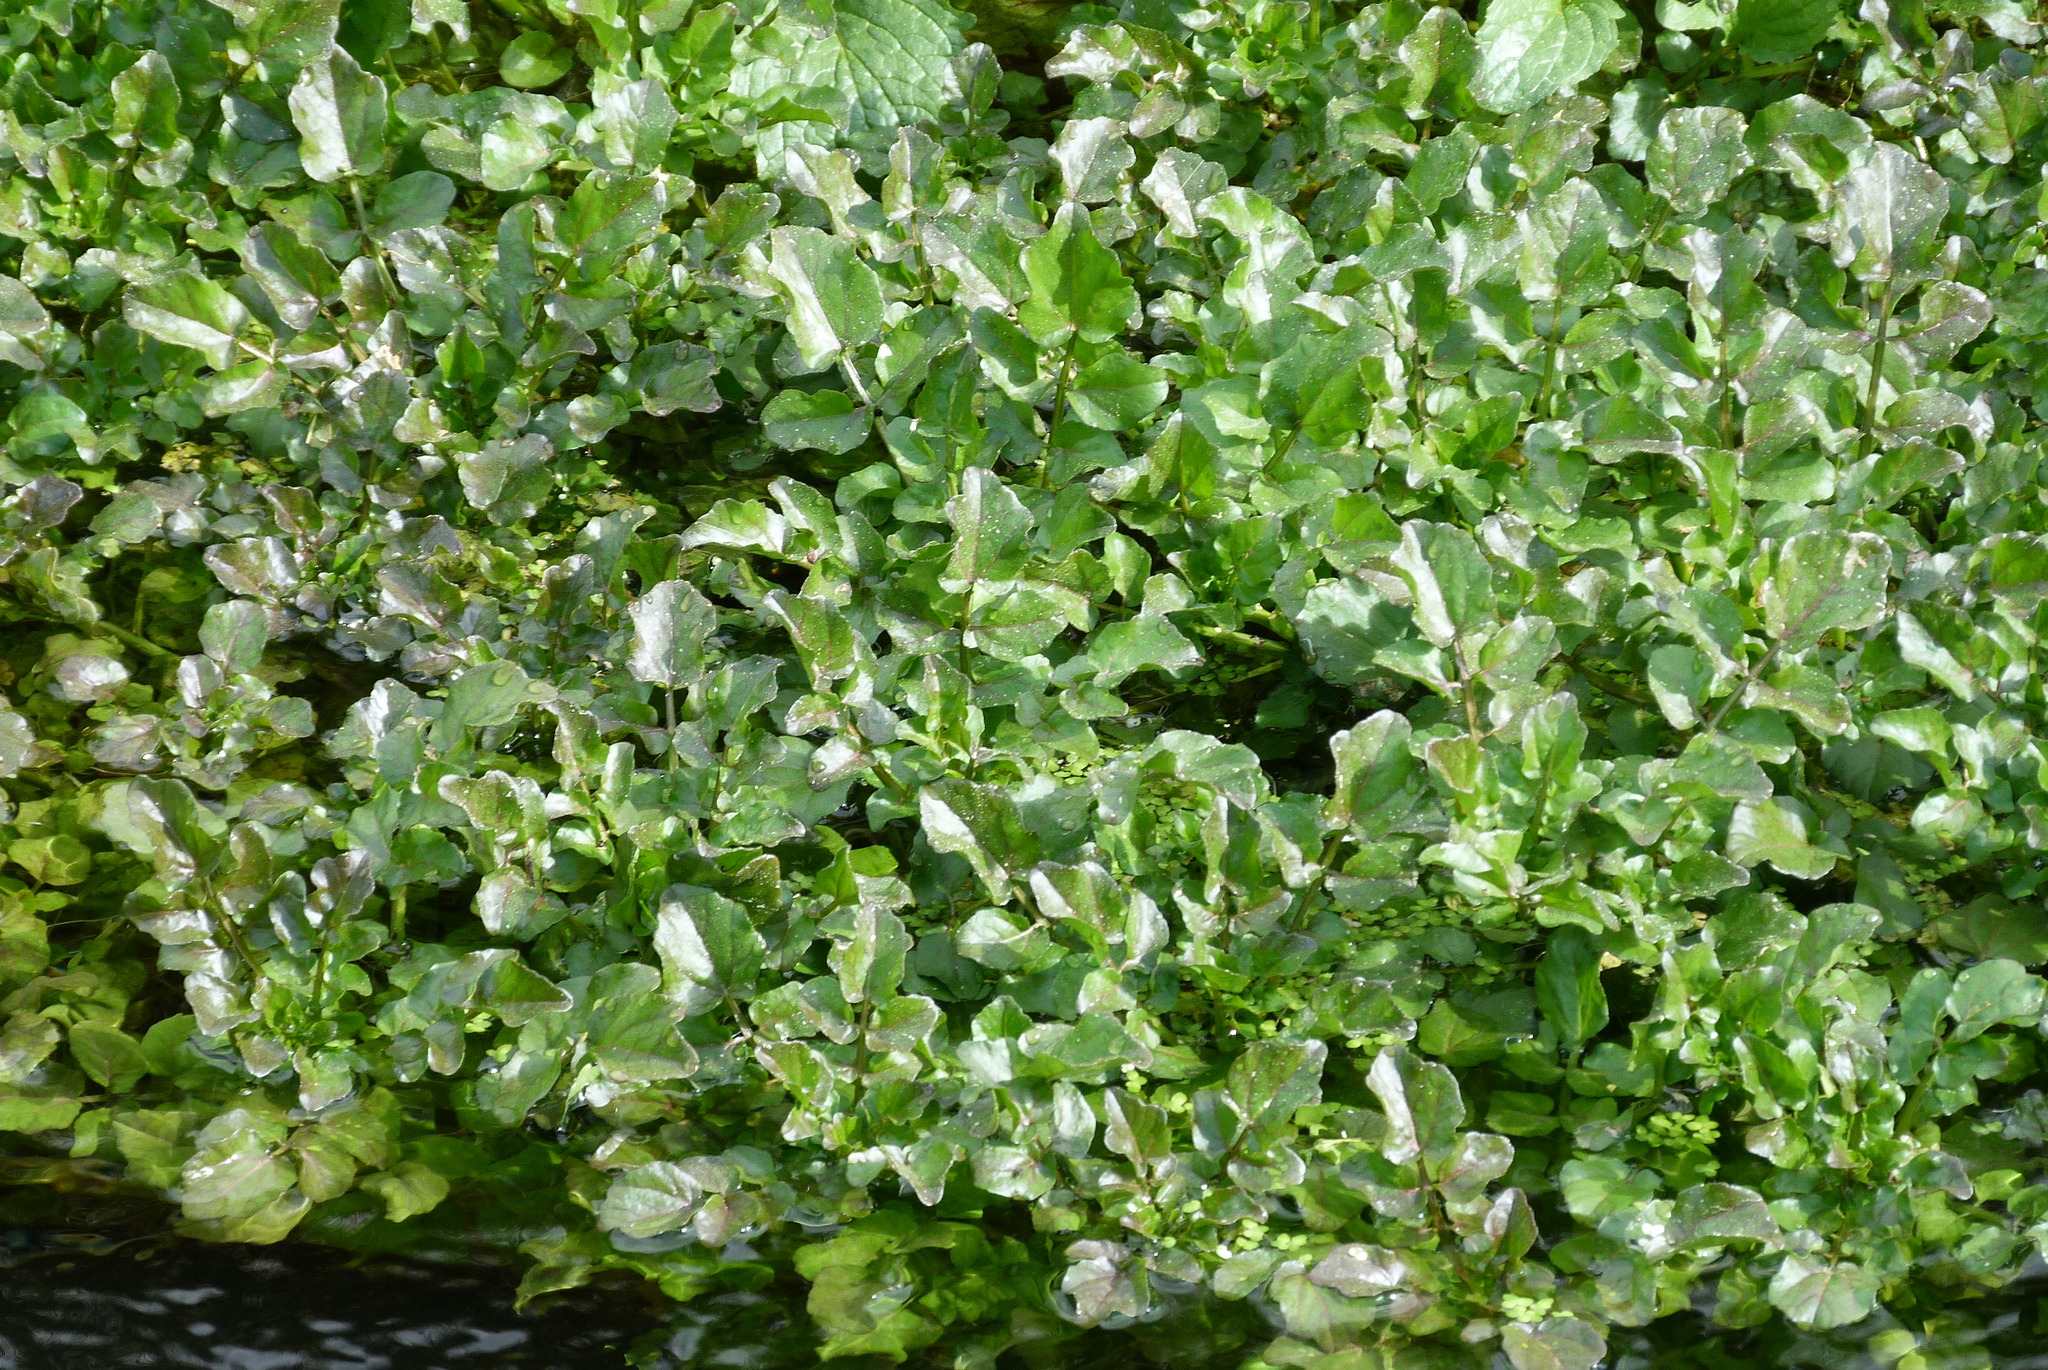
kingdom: Plantae
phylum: Tracheophyta
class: Magnoliopsida
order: Brassicales
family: Brassicaceae
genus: Nasturtium
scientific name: Nasturtium officinale
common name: Watercress
